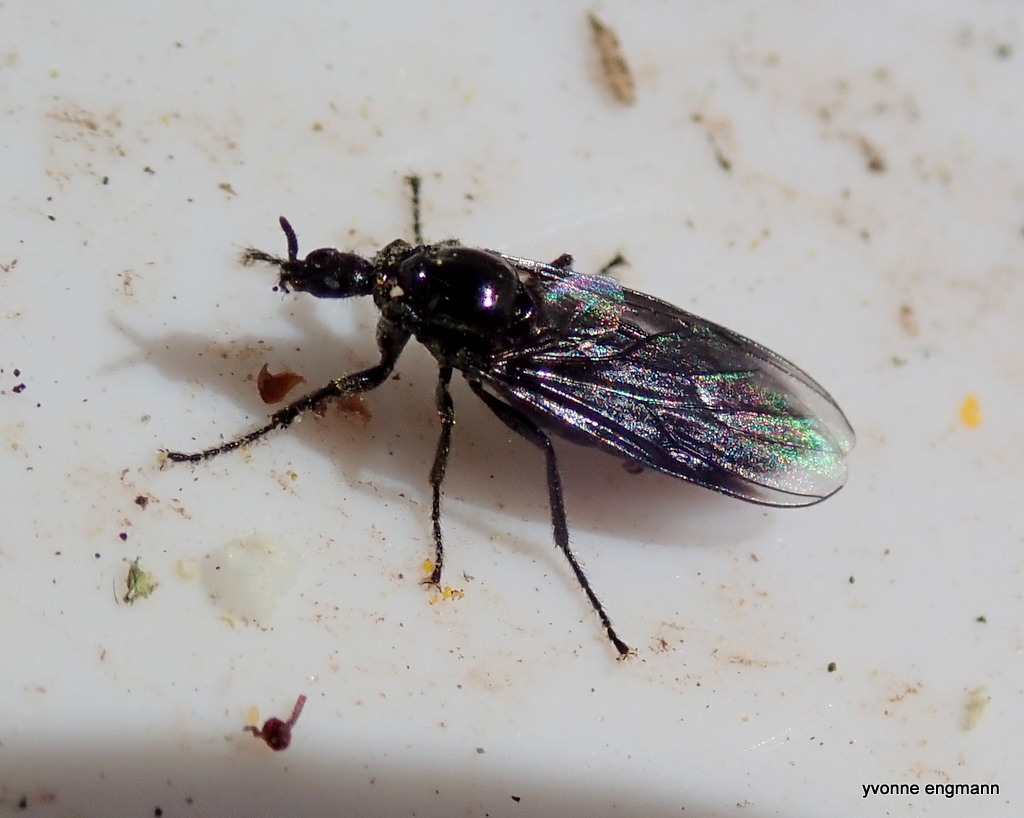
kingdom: Animalia
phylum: Arthropoda
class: Insecta
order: Diptera
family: Bibionidae
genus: Dilophus
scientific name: Dilophus febrilis
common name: Fever fly
